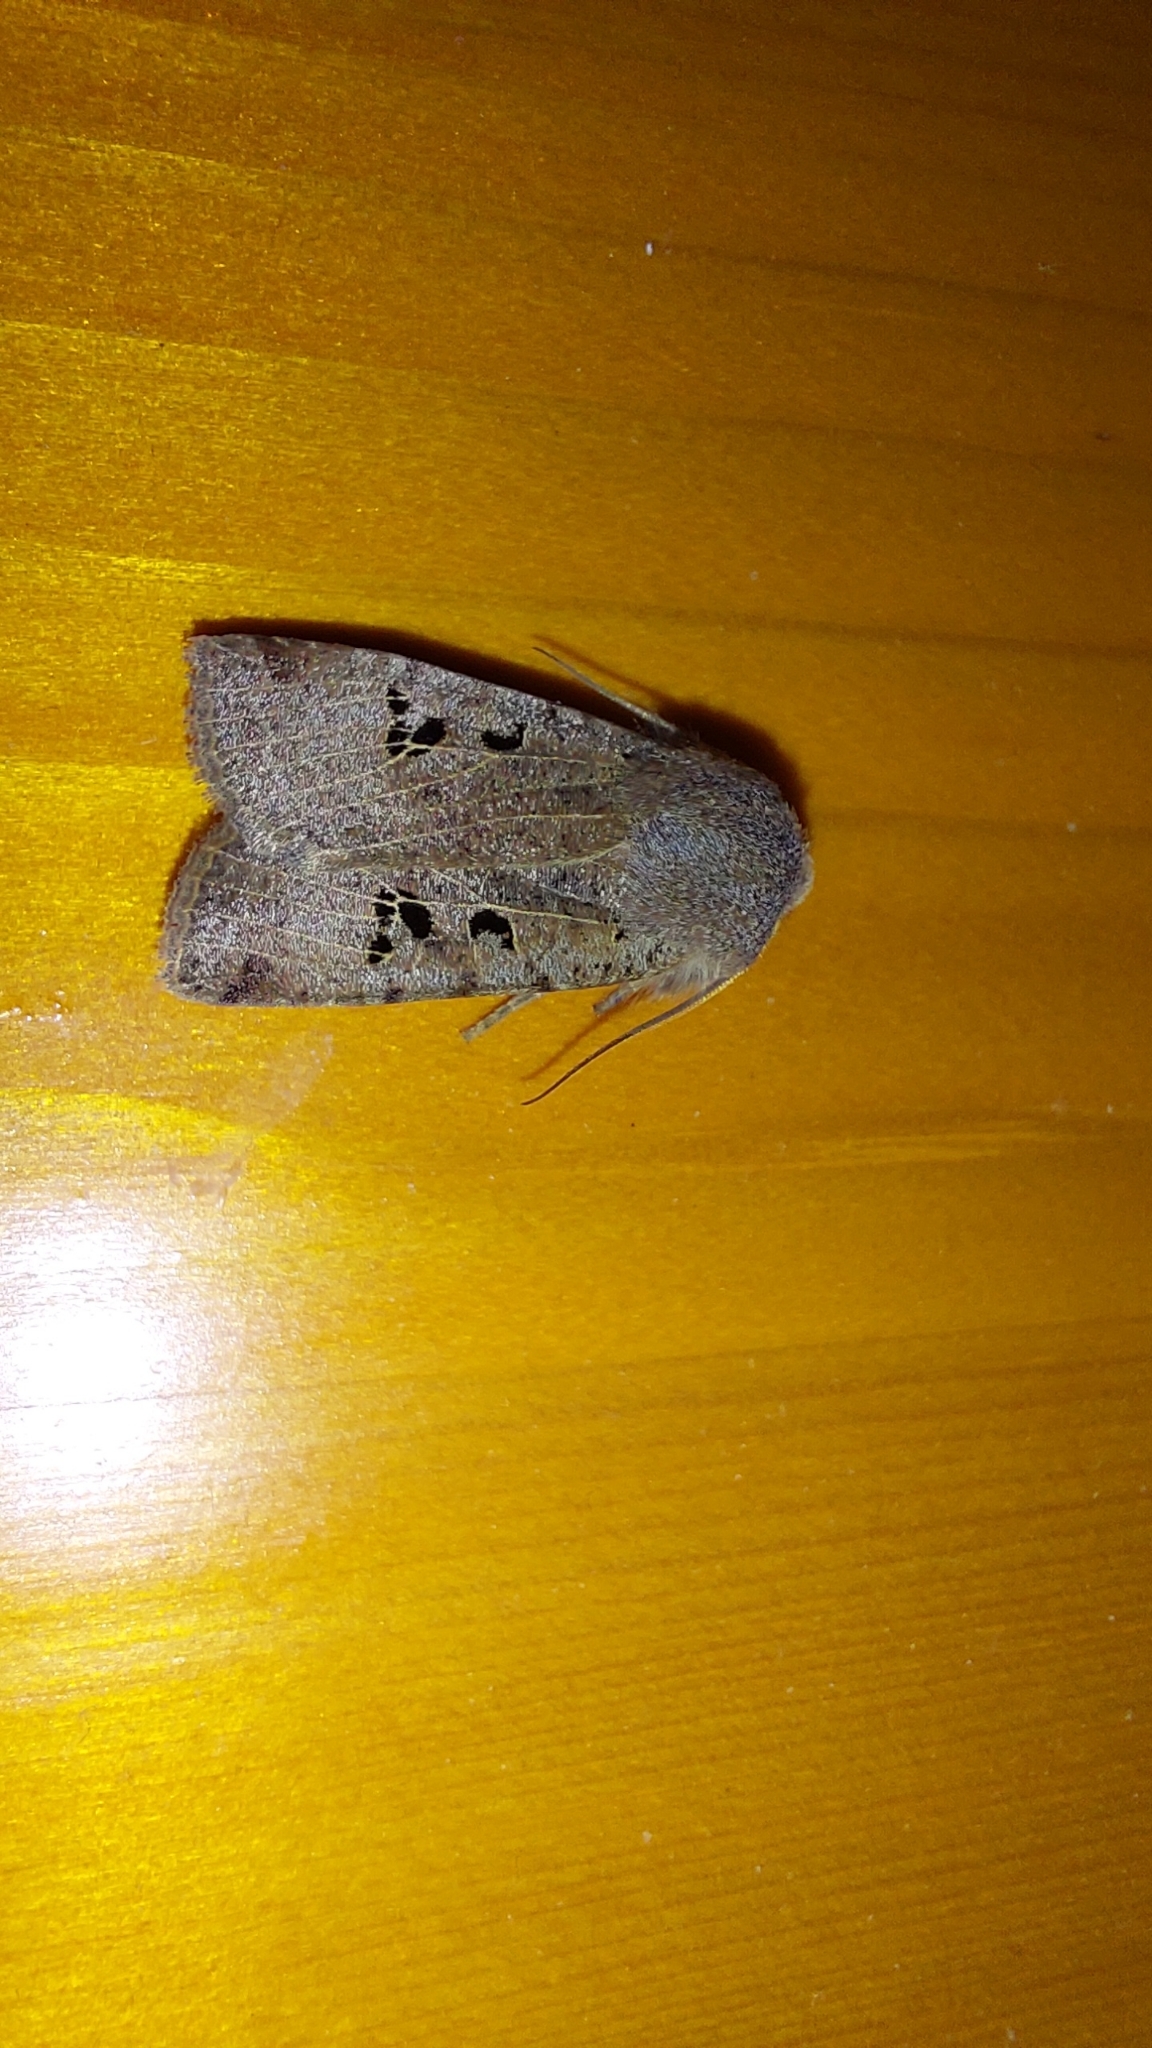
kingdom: Animalia
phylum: Arthropoda
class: Insecta
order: Lepidoptera
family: Noctuidae
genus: Conistra
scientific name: Conistra rubiginosa
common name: Black-spotted chestnut
